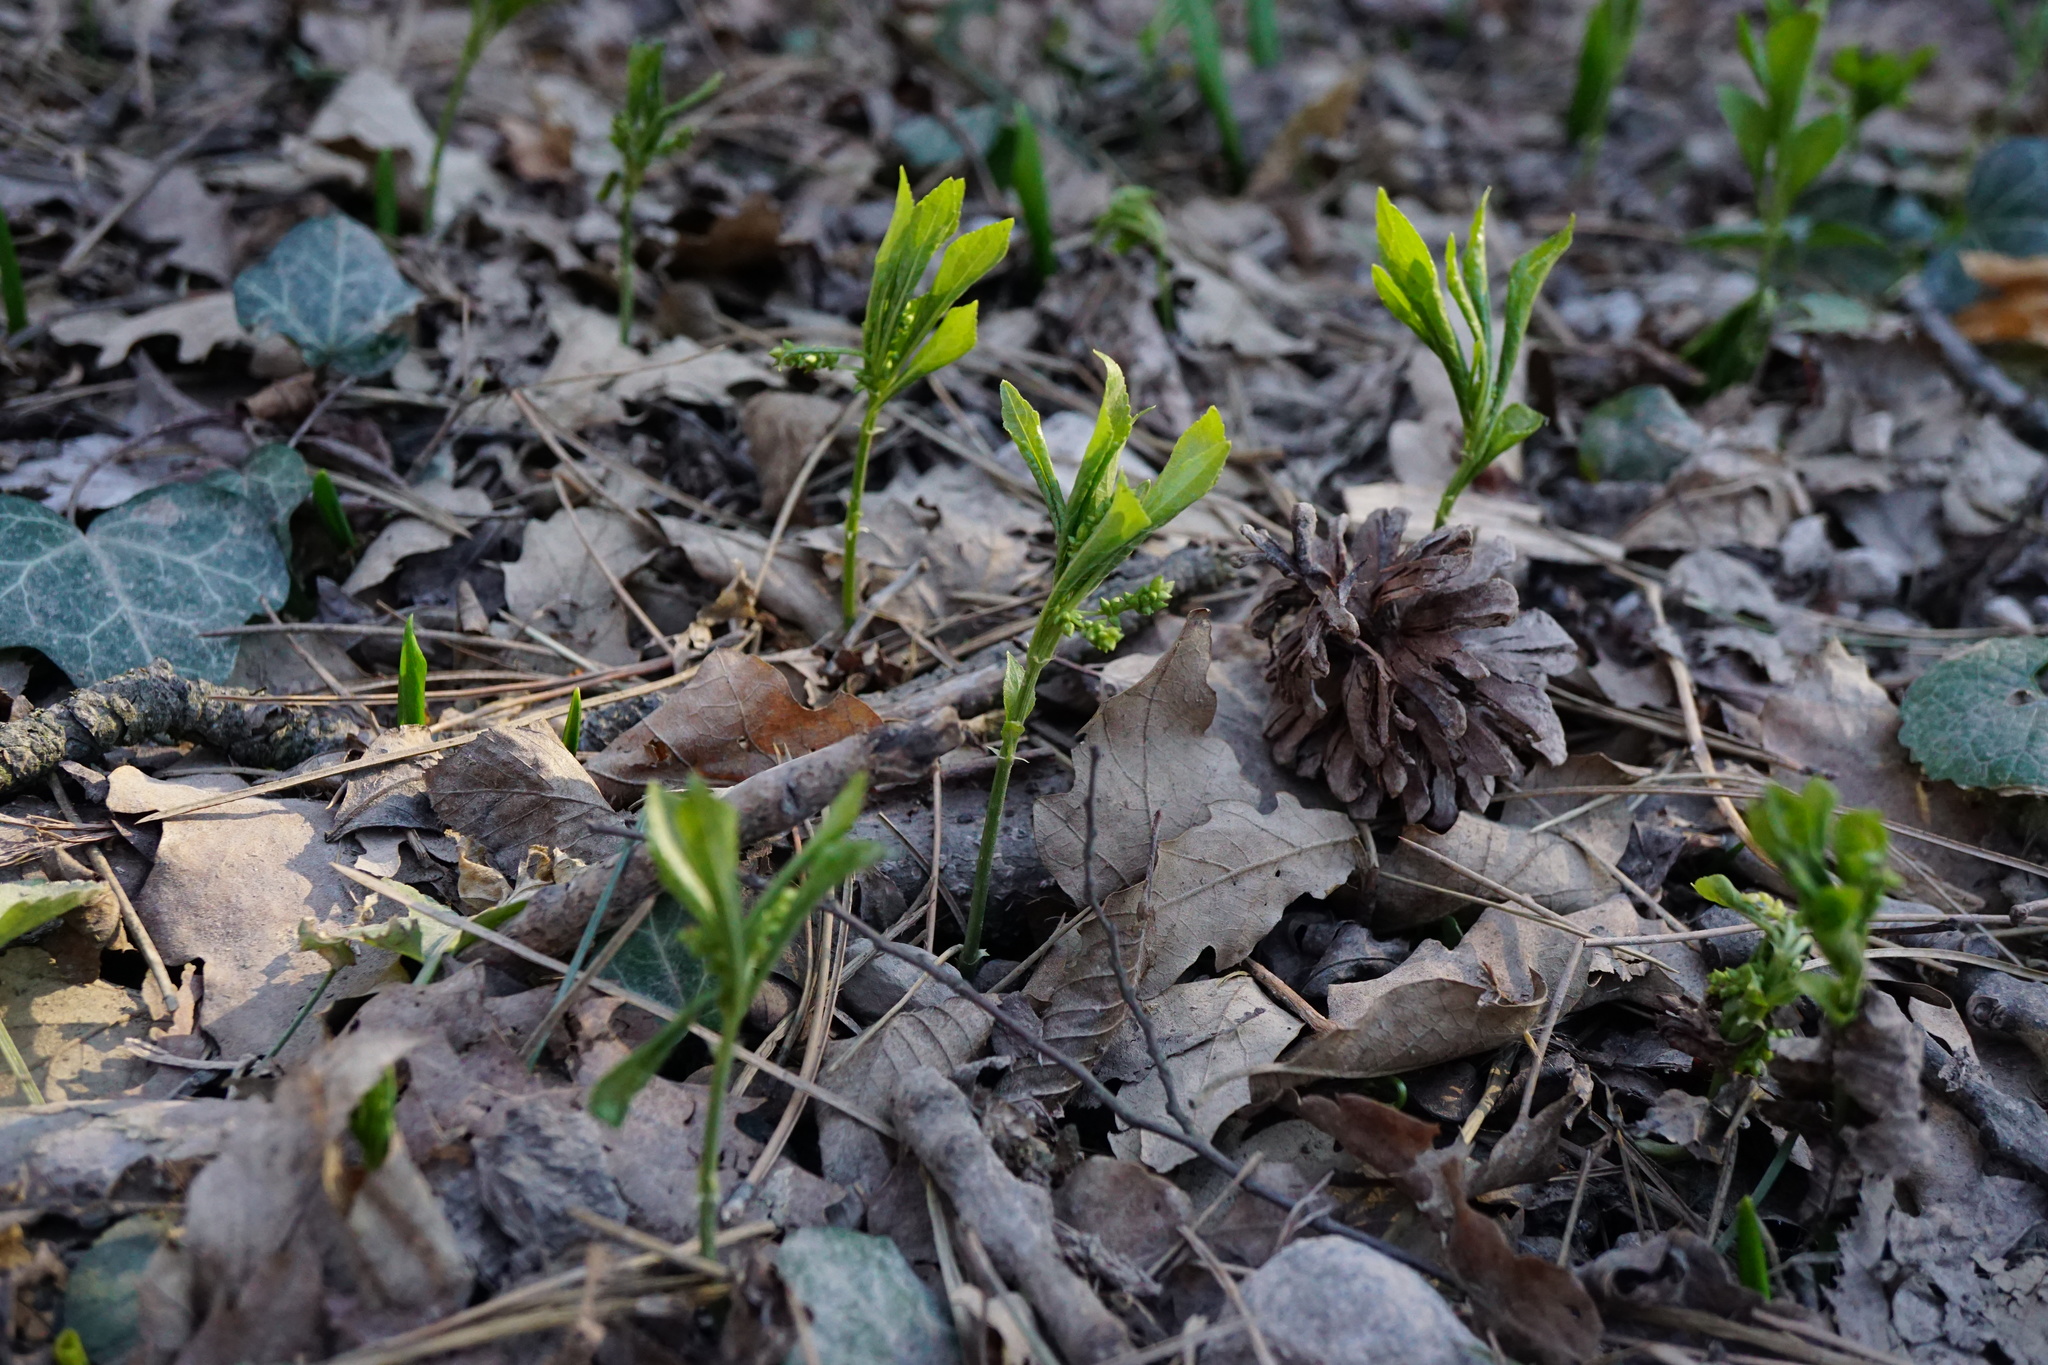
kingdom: Plantae
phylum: Tracheophyta
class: Magnoliopsida
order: Malpighiales
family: Euphorbiaceae
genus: Mercurialis
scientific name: Mercurialis perennis
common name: Dog mercury
